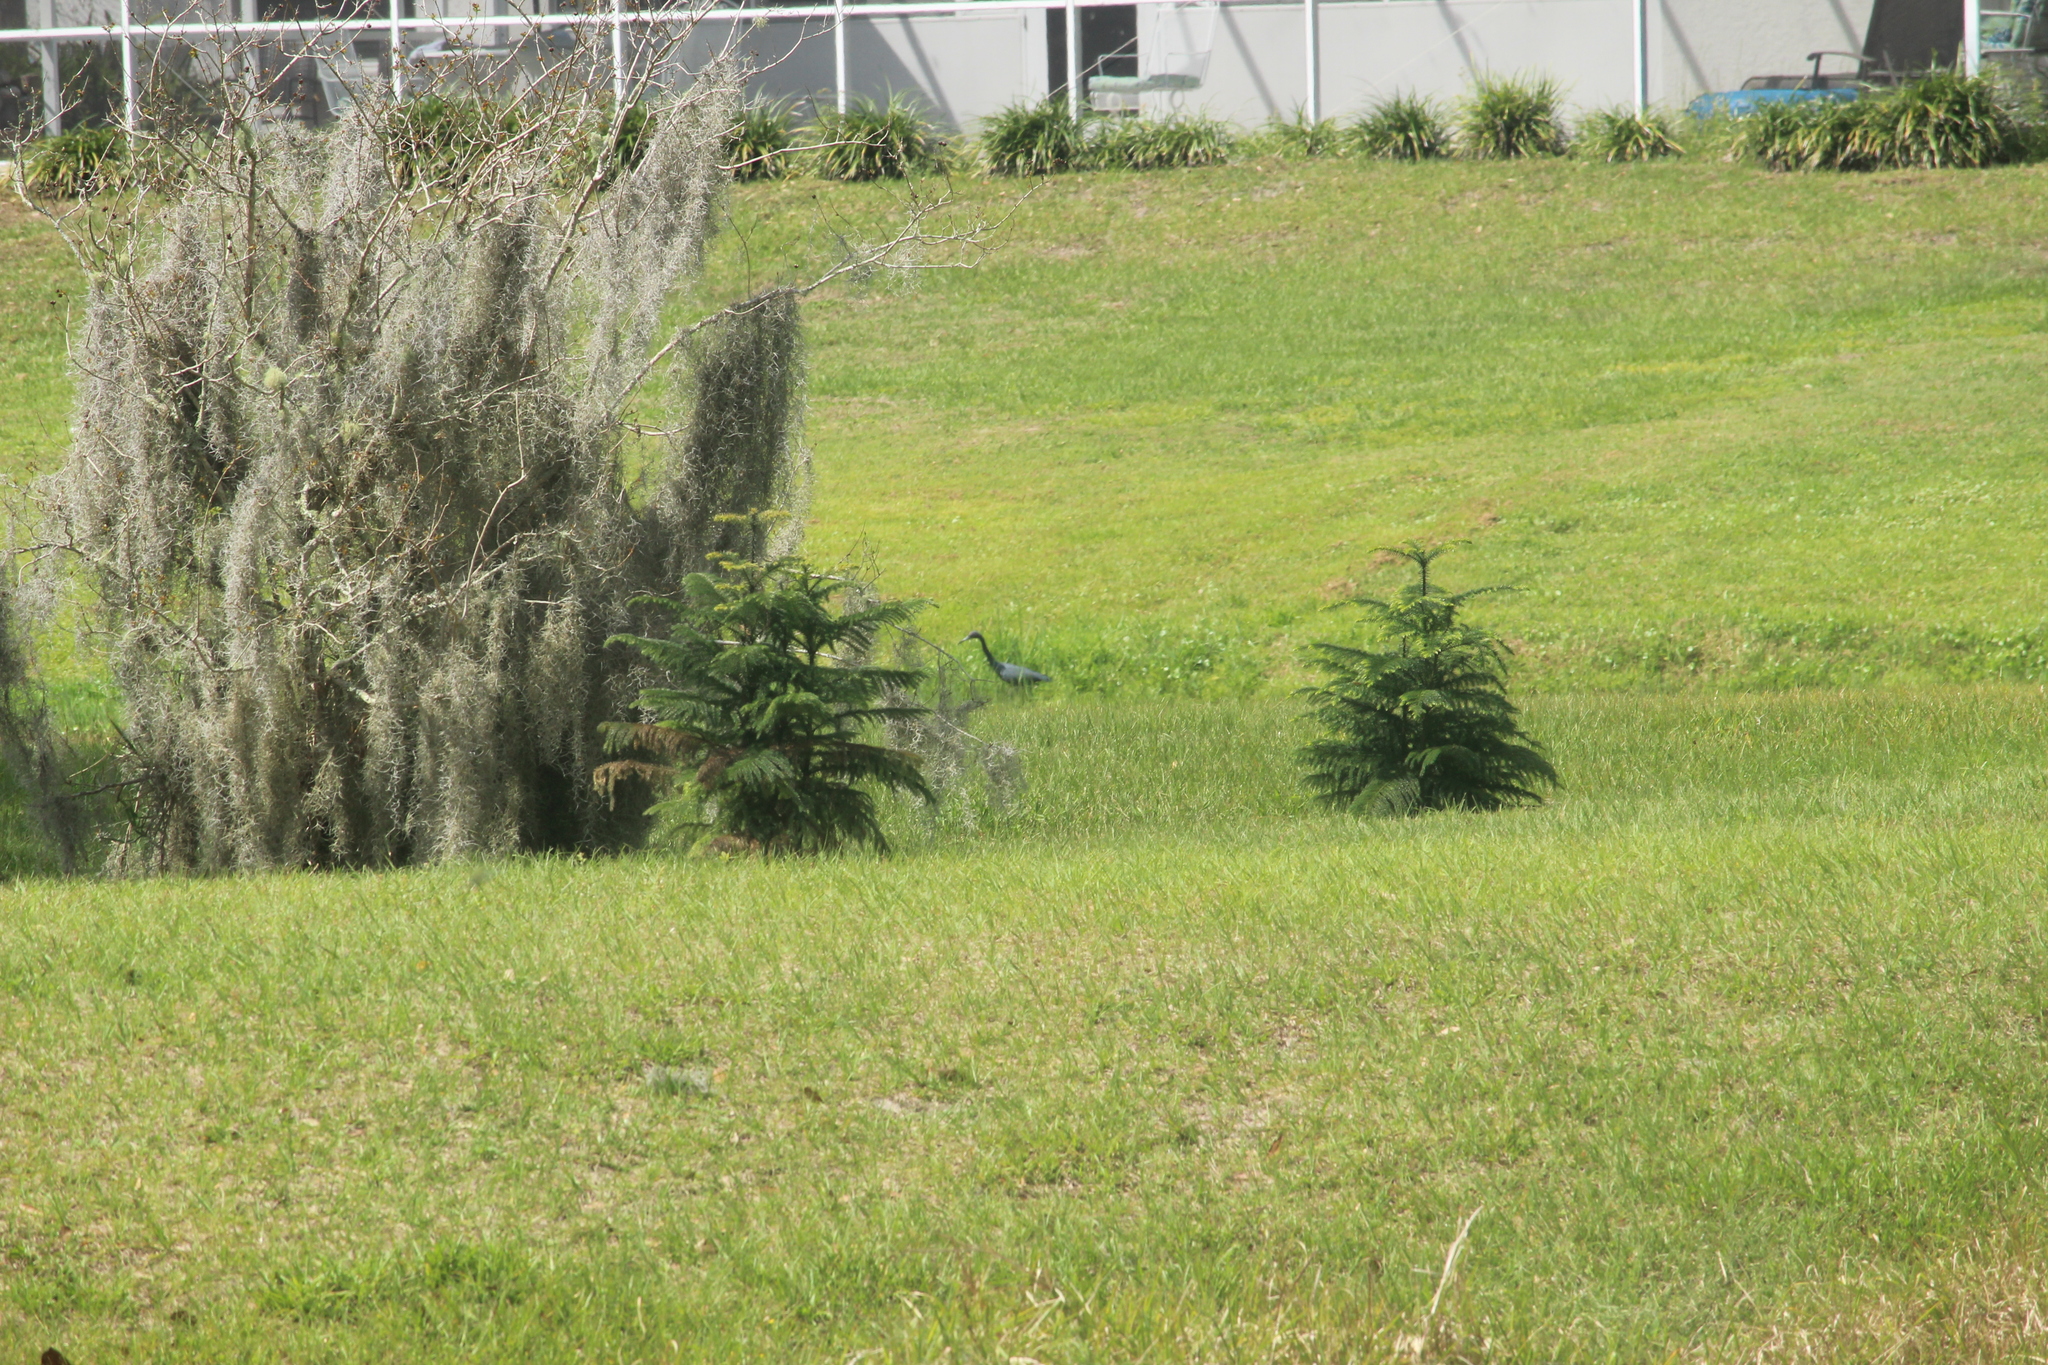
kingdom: Animalia
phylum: Chordata
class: Aves
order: Pelecaniformes
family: Ardeidae
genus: Egretta
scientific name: Egretta caerulea
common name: Little blue heron
